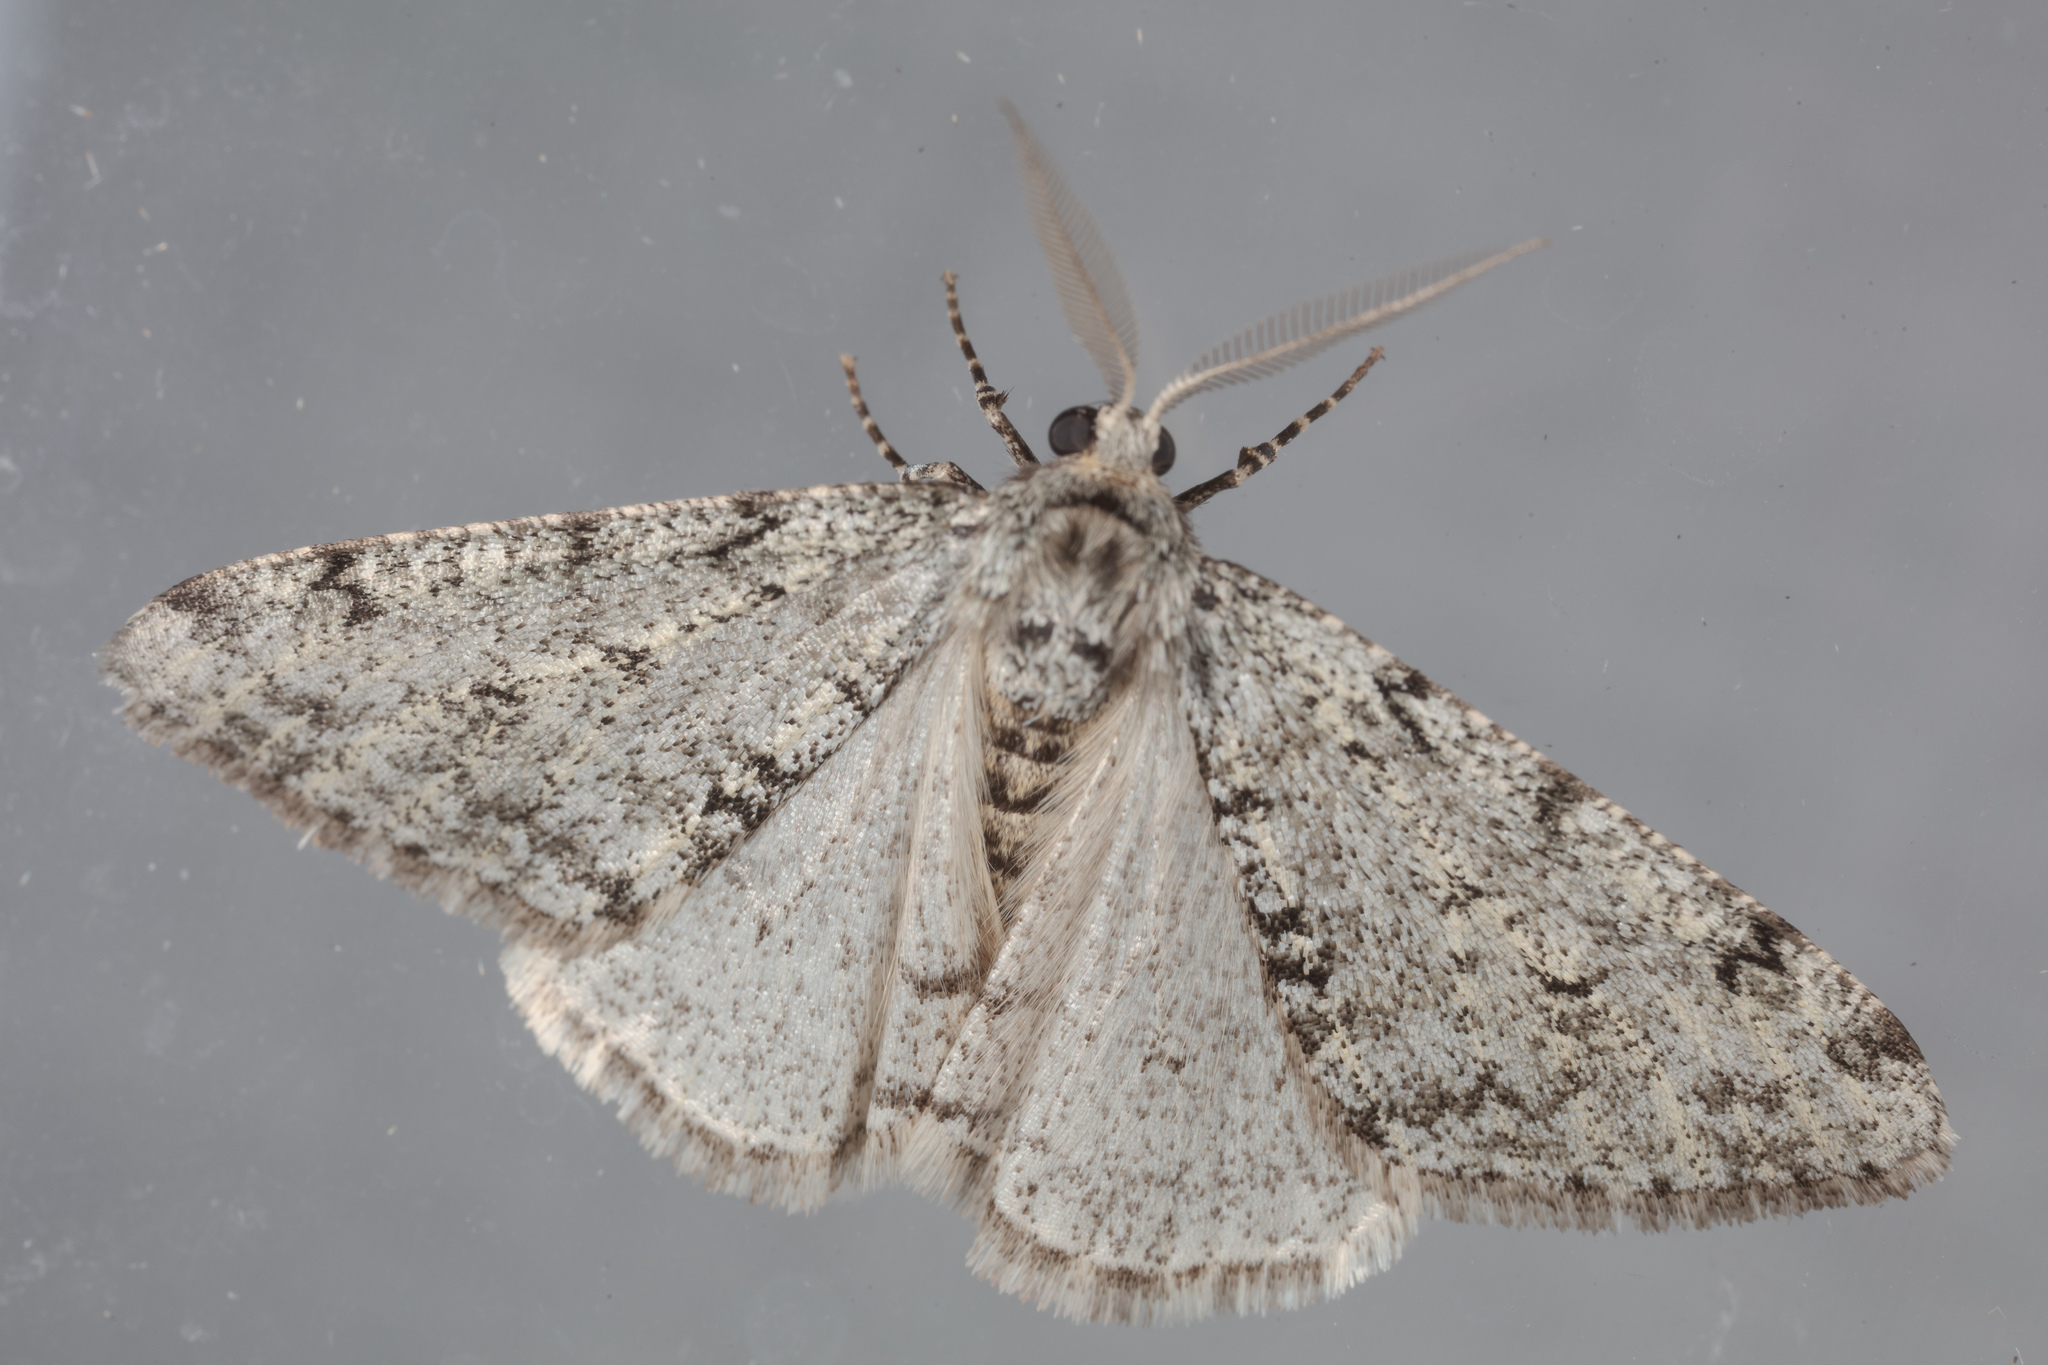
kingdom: Animalia
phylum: Arthropoda
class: Insecta
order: Lepidoptera
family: Geometridae
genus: Phigalia
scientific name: Phigalia strigataria
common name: Small phigalia
